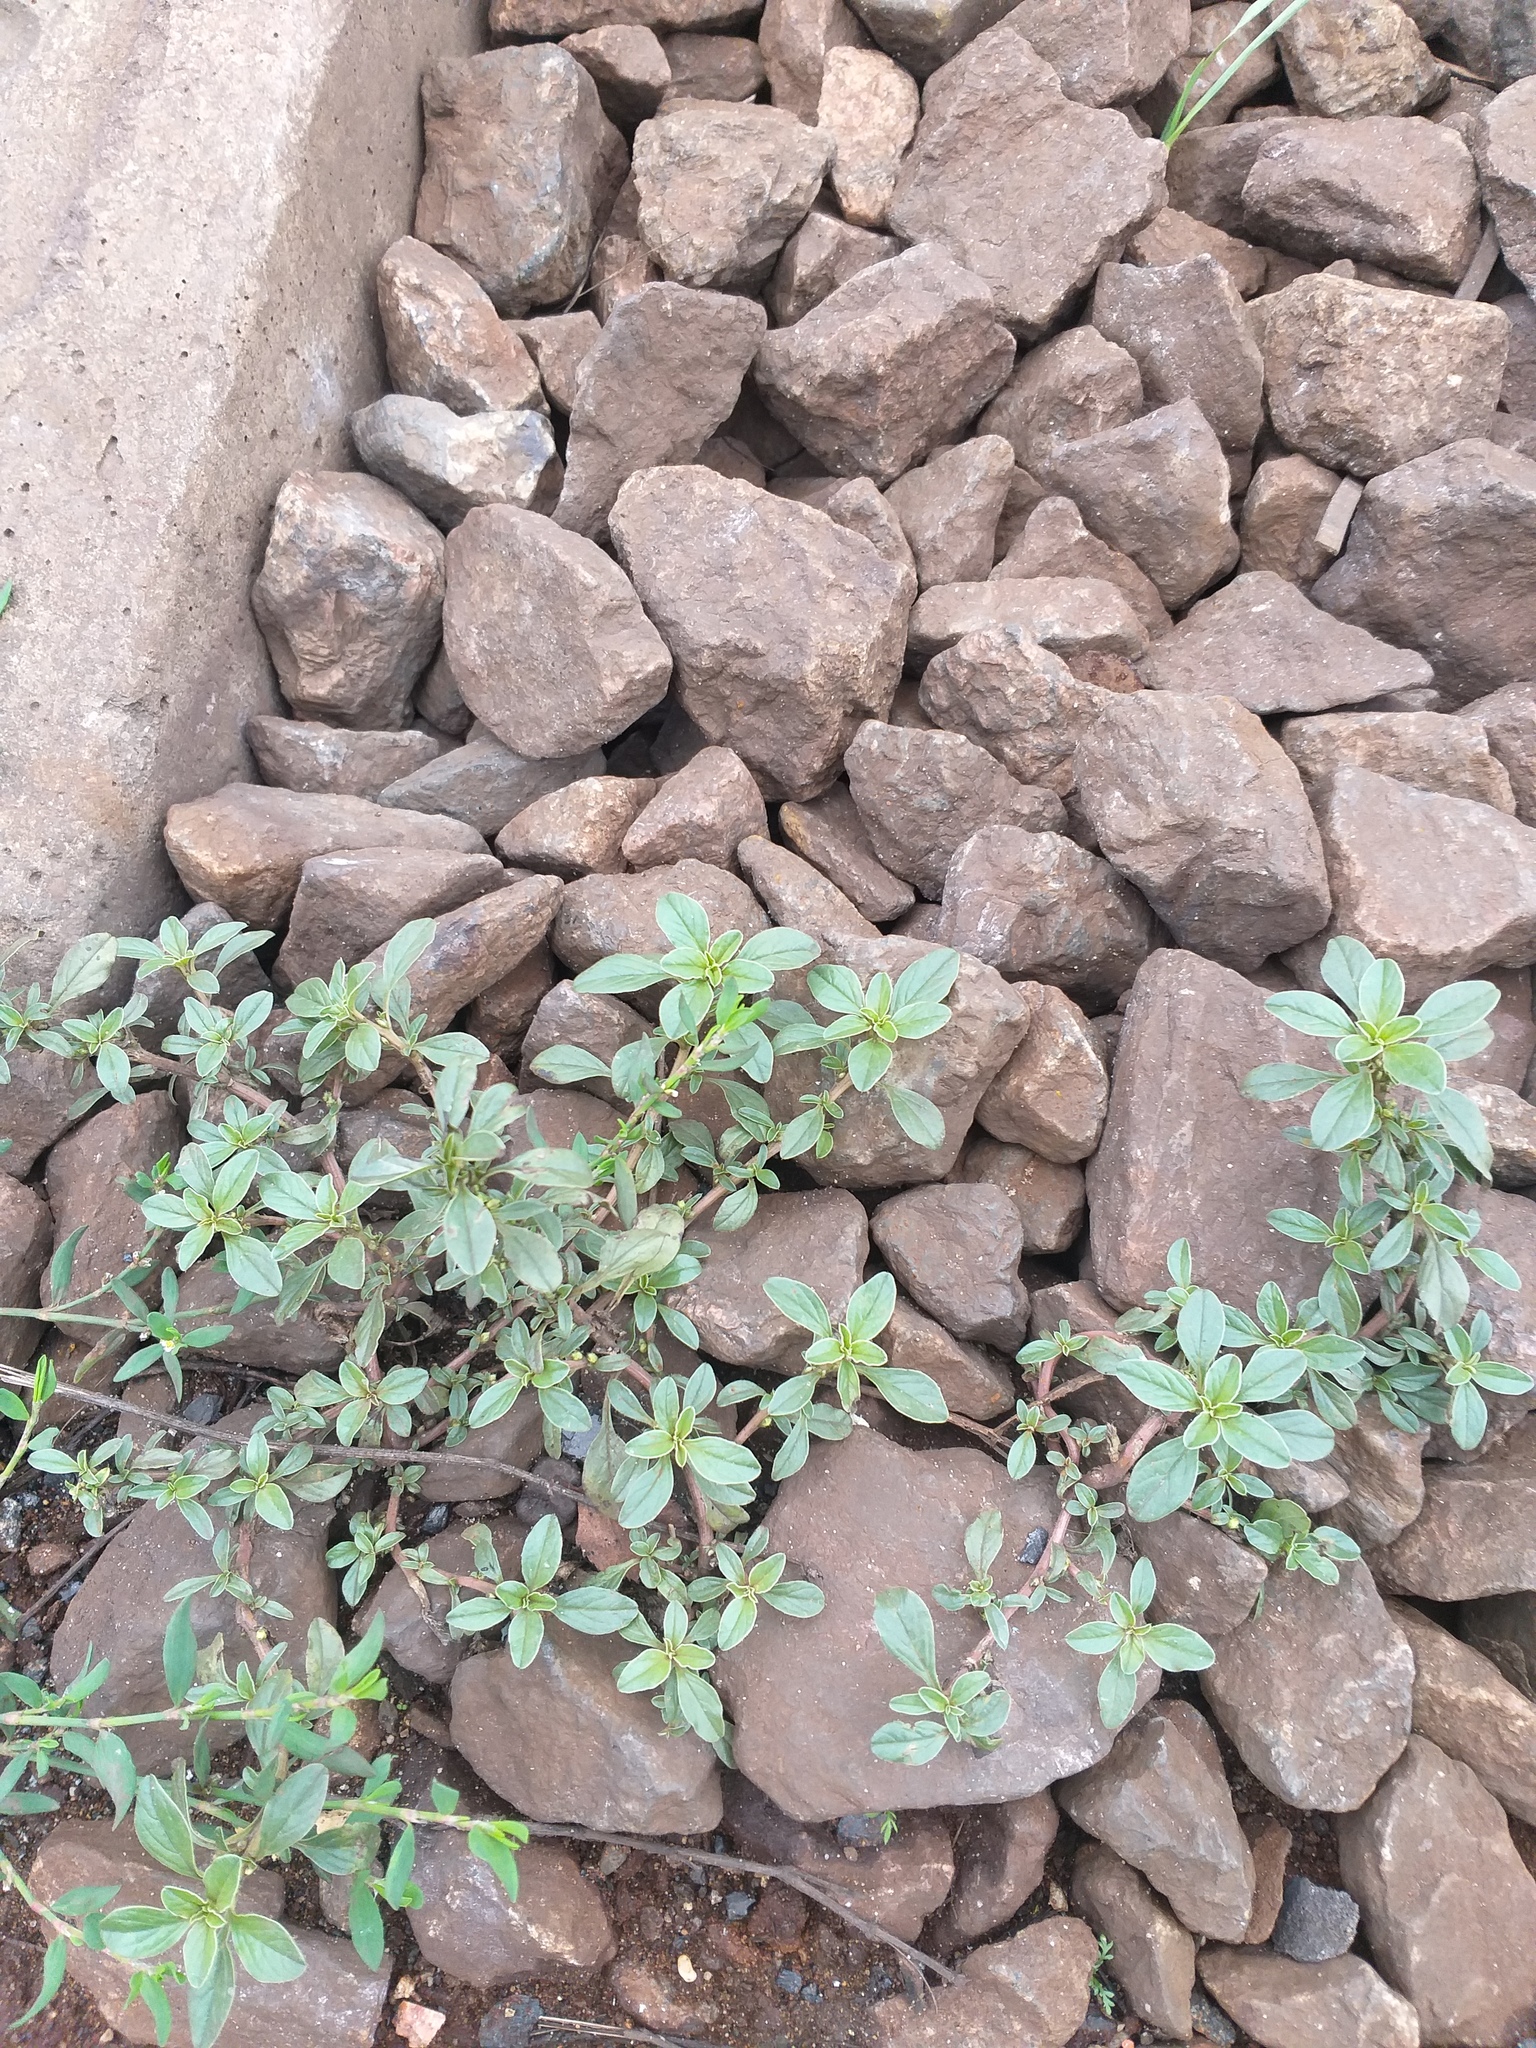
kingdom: Plantae
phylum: Tracheophyta
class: Magnoliopsida
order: Caryophyllales
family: Amaranthaceae
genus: Amaranthus
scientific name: Amaranthus blitoides
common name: Prostrate pigweed
